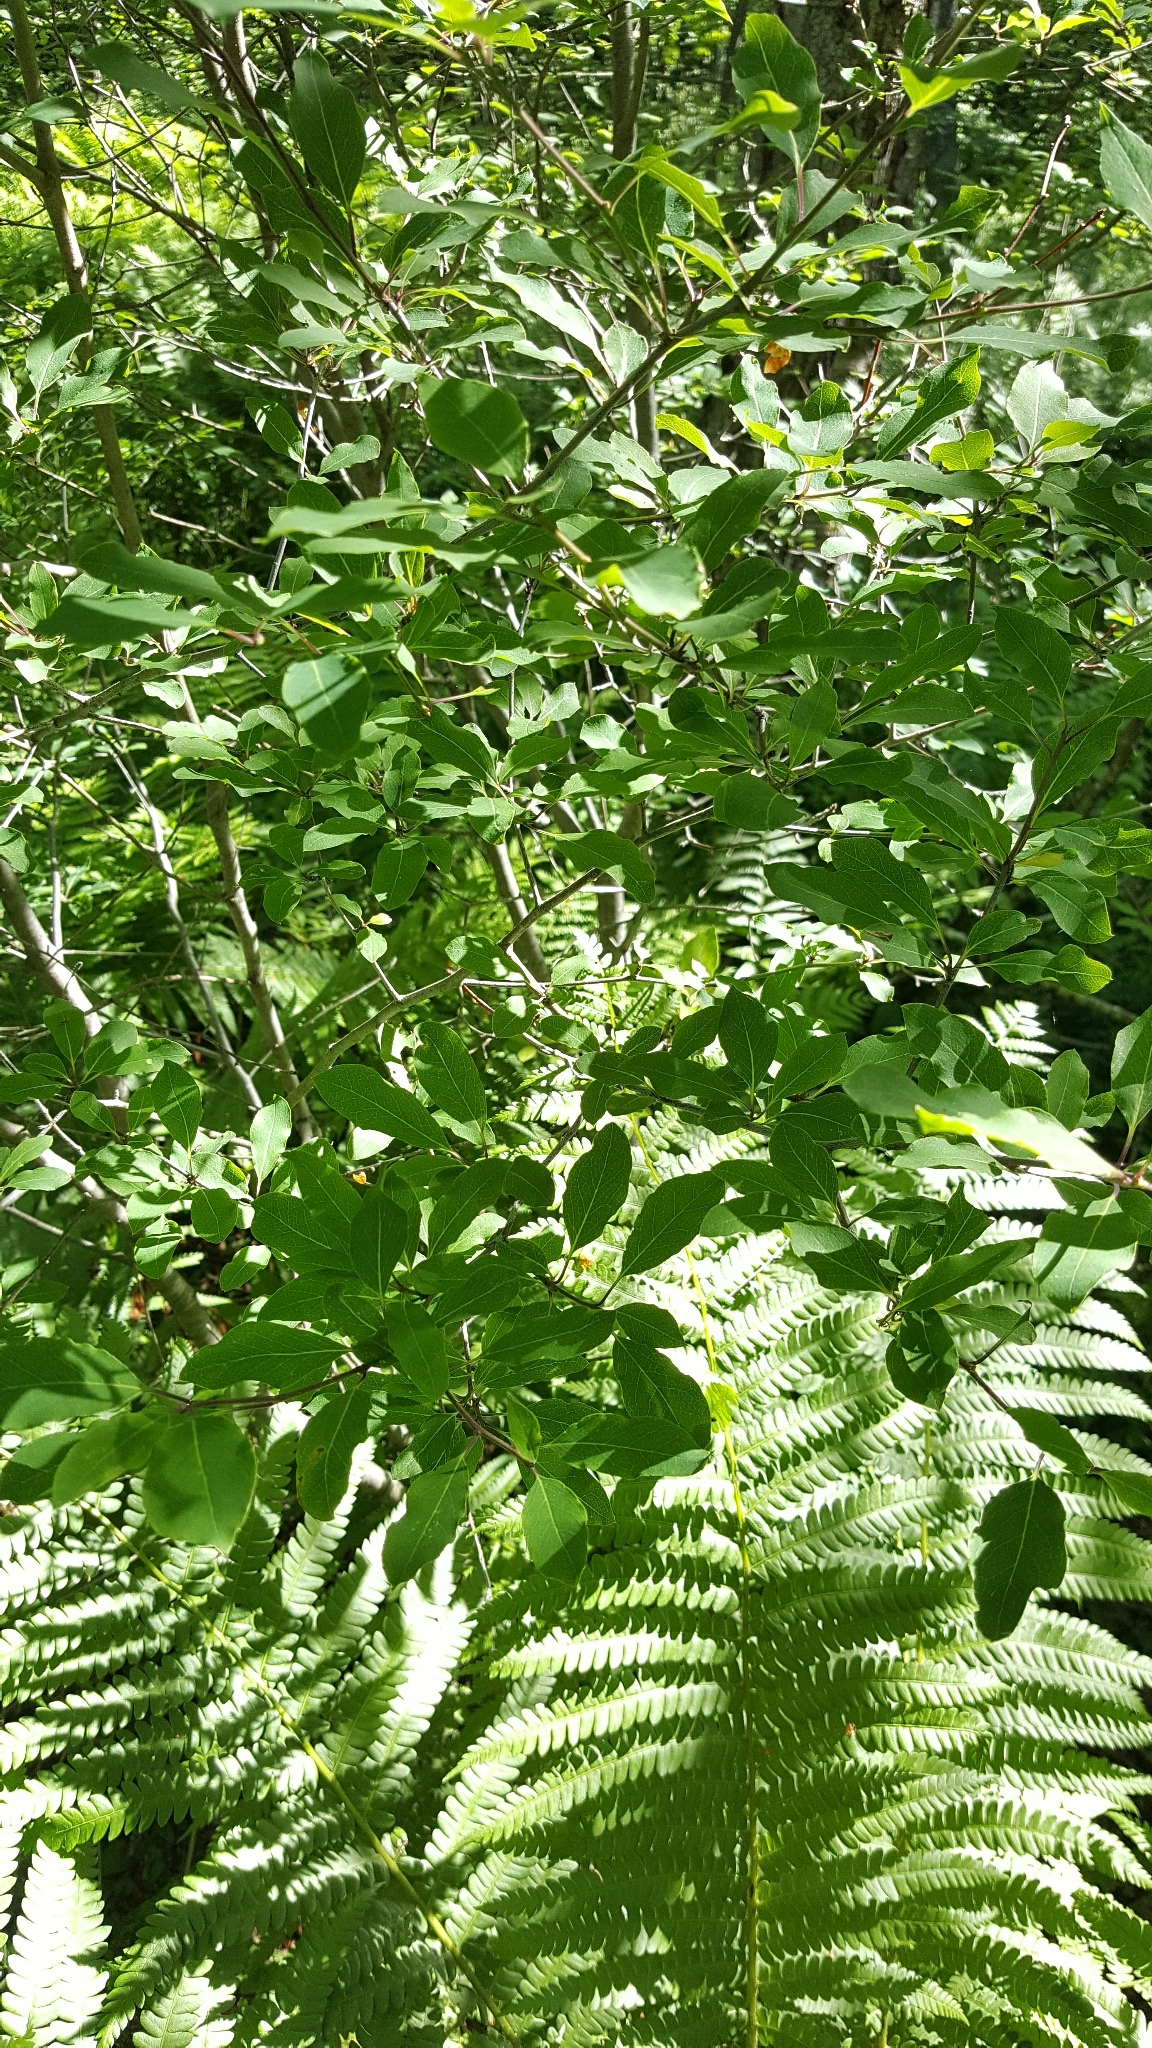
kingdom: Plantae
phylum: Tracheophyta
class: Magnoliopsida
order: Aquifoliales
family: Aquifoliaceae
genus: Ilex
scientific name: Ilex verticillata
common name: Virginia winterberry
